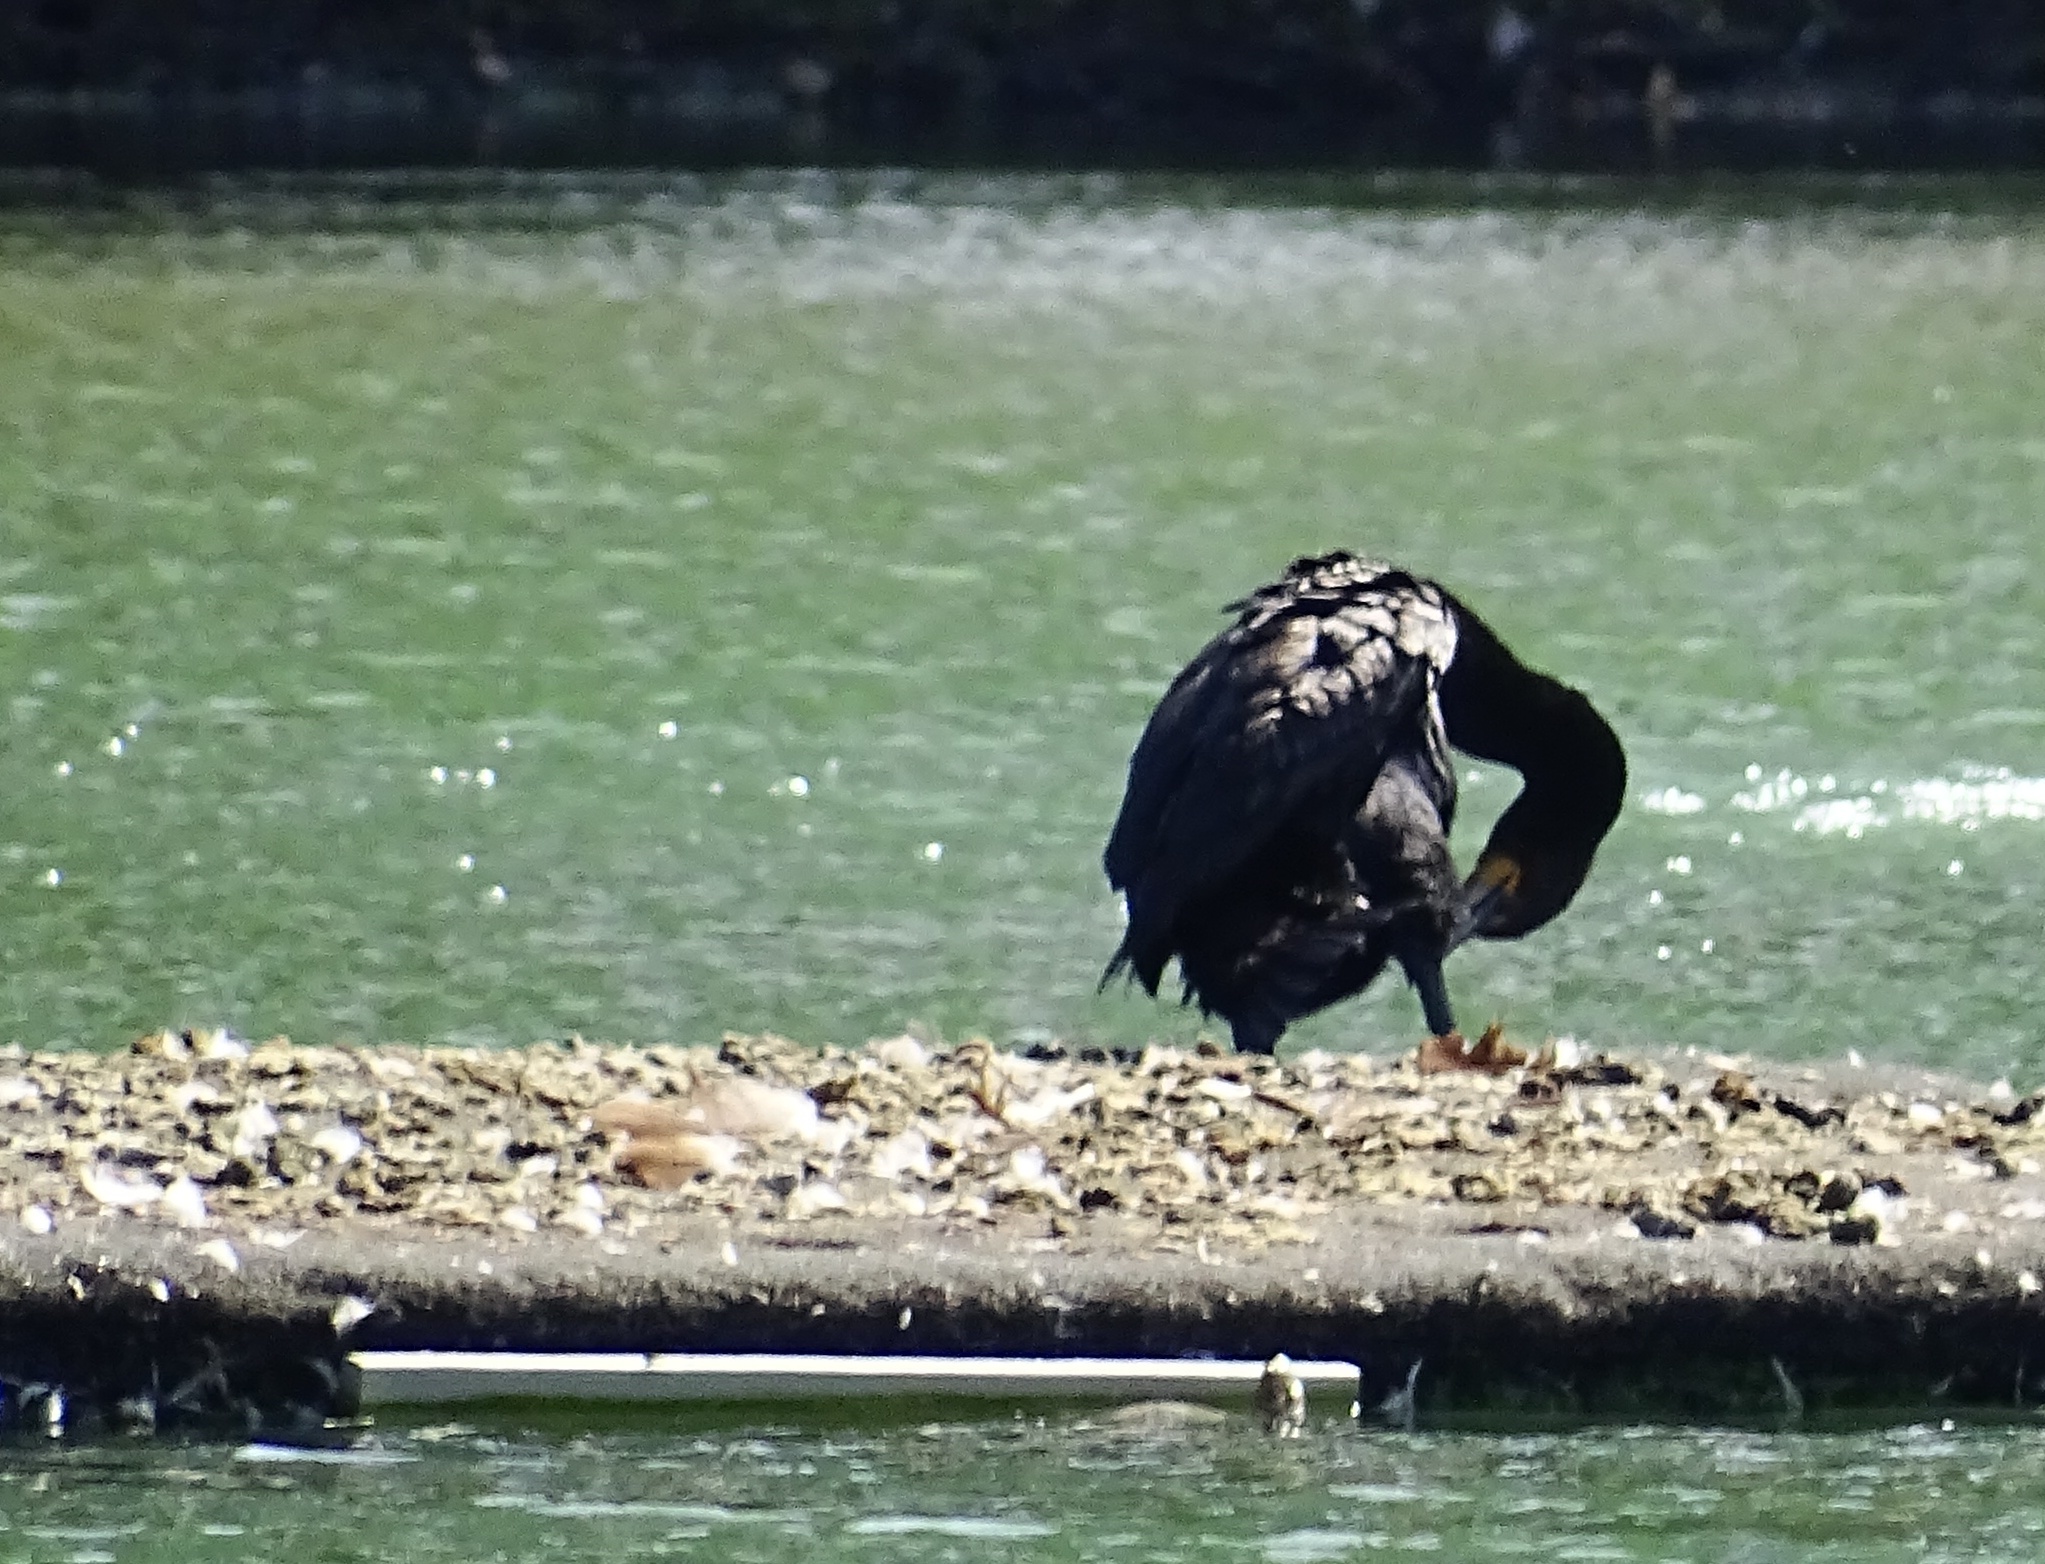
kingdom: Animalia
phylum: Chordata
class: Aves
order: Suliformes
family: Phalacrocoracidae
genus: Phalacrocorax
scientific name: Phalacrocorax auritus
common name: Double-crested cormorant
